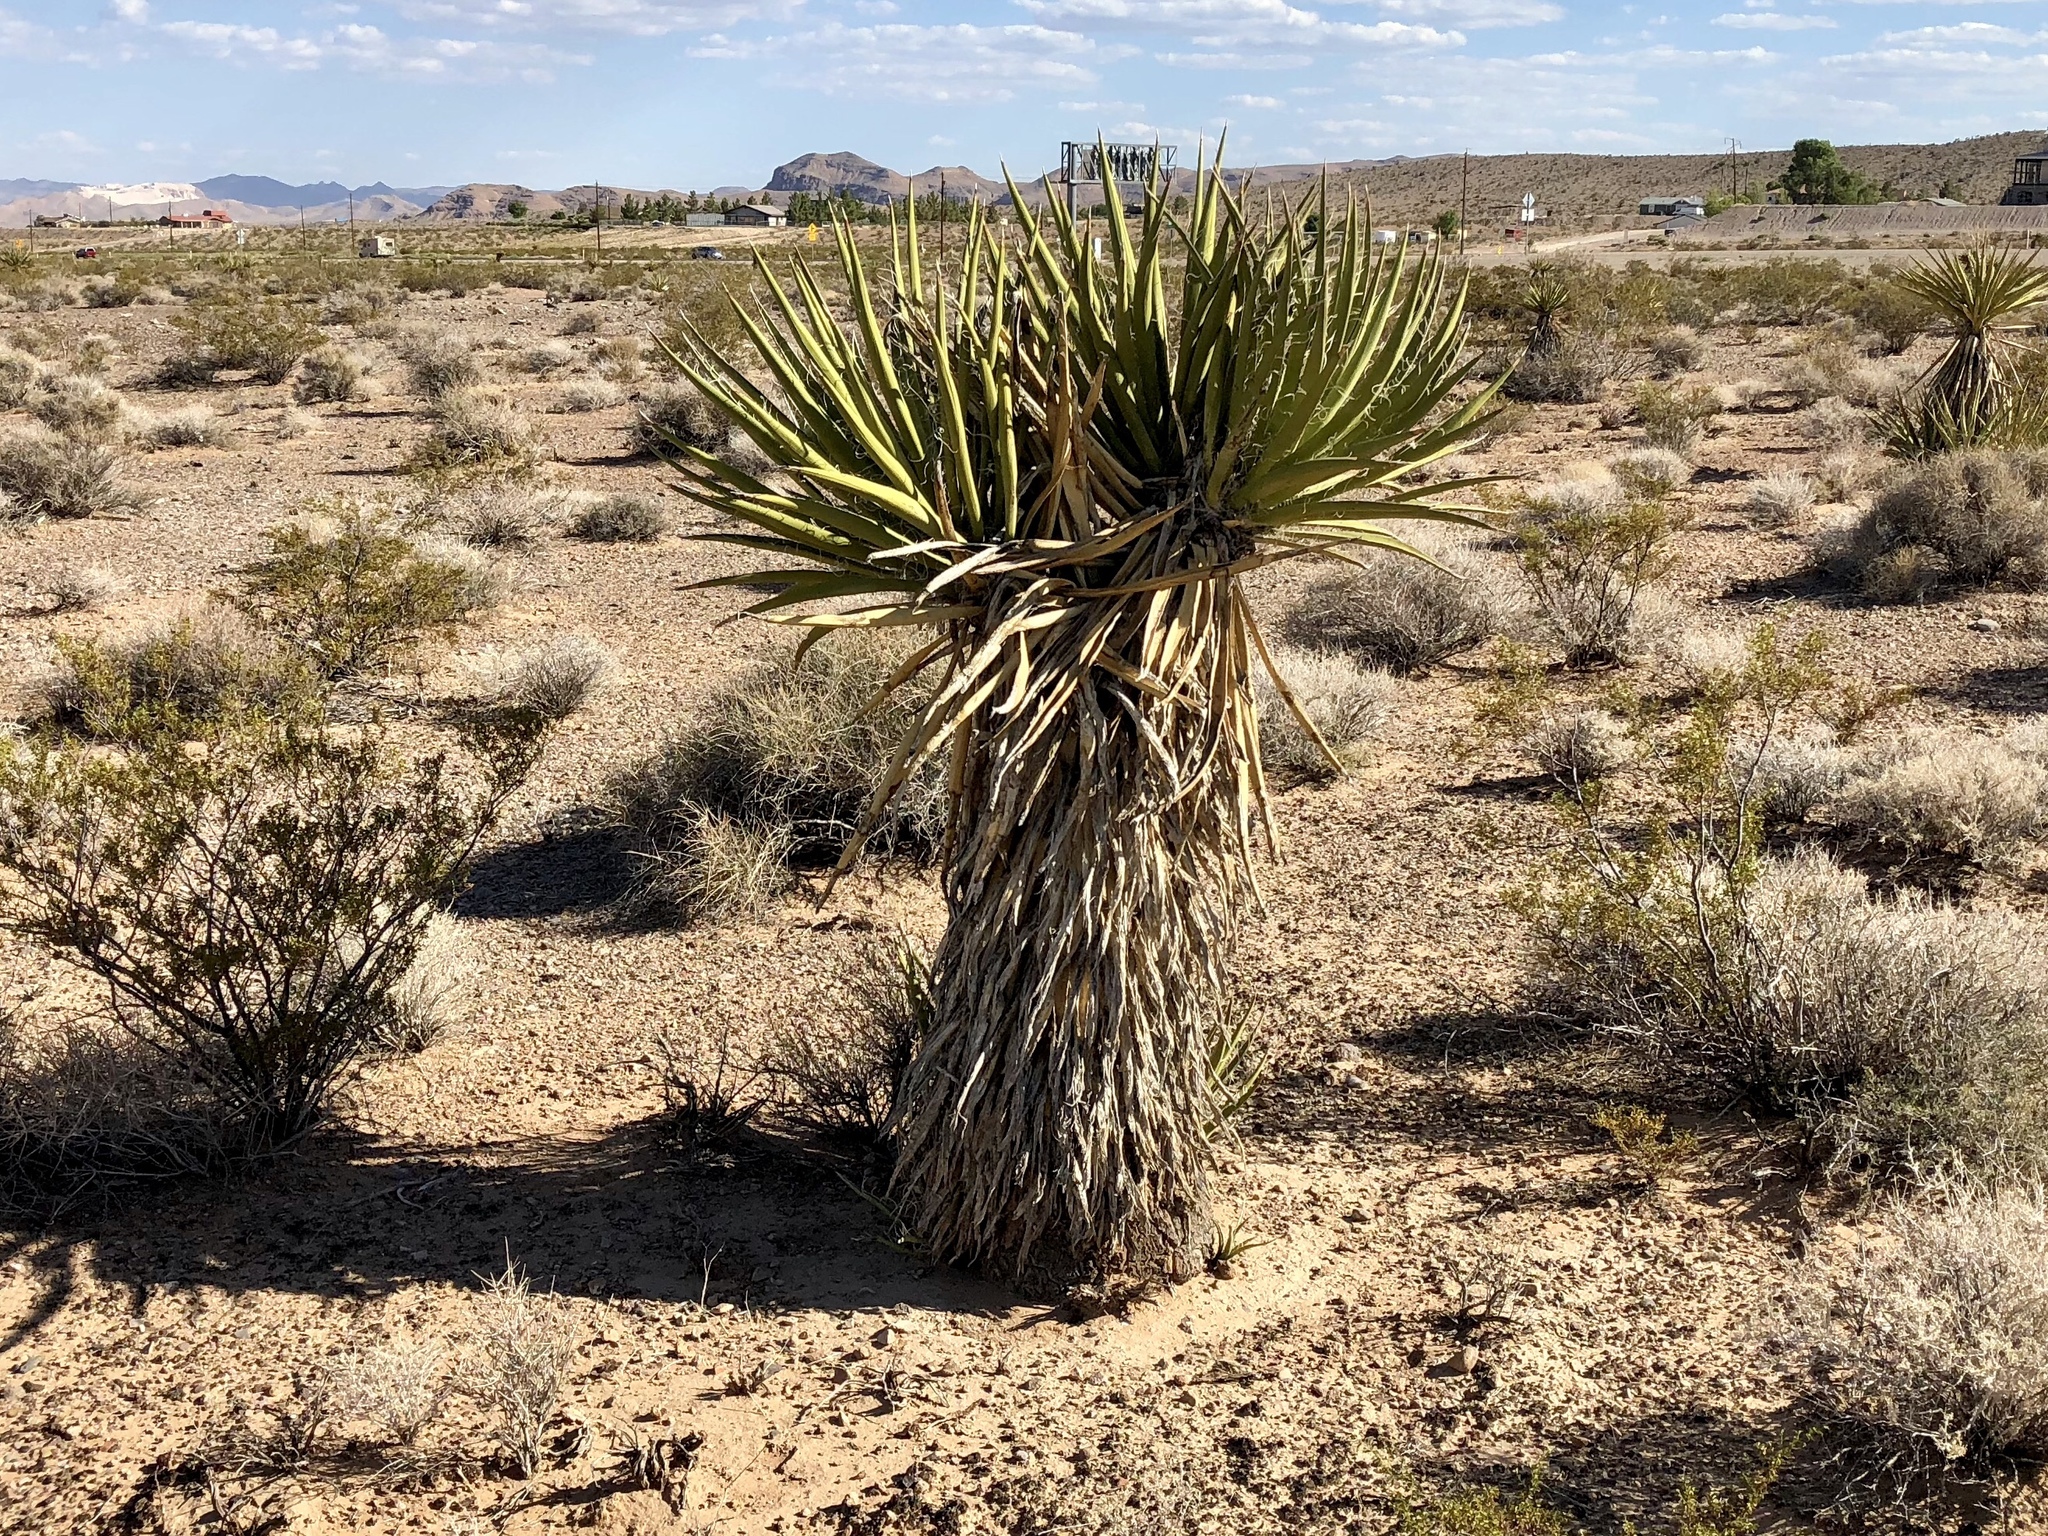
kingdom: Plantae
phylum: Tracheophyta
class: Liliopsida
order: Asparagales
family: Asparagaceae
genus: Yucca
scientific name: Yucca schidigera
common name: Mojave yucca
